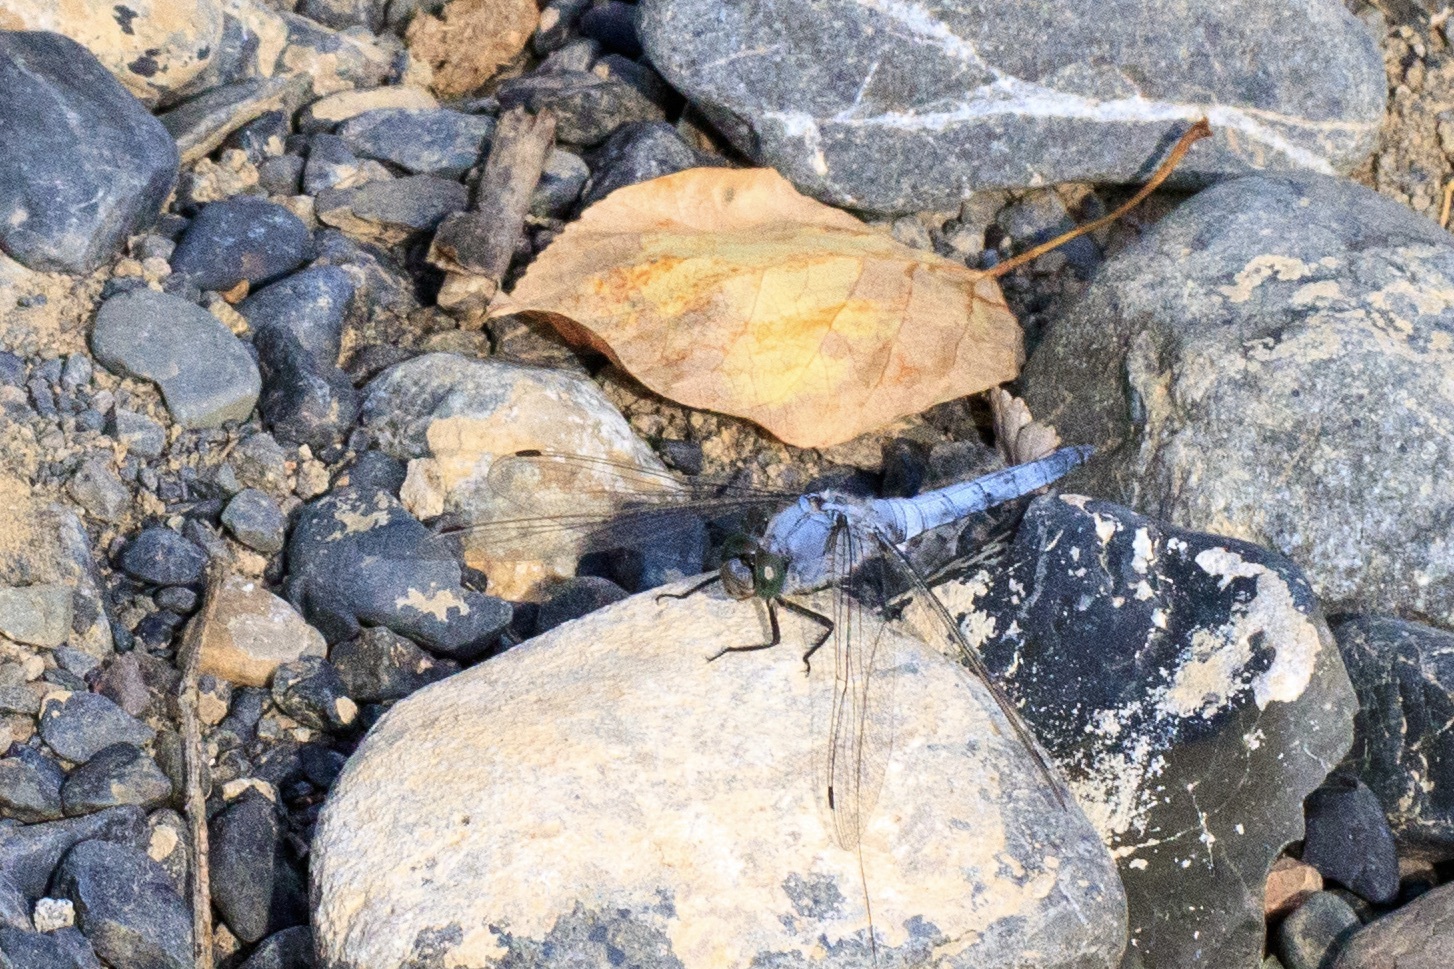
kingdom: Animalia
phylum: Arthropoda
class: Insecta
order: Odonata
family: Libellulidae
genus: Orthetrum
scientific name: Orthetrum cancellatum
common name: Black-tailed skimmer
